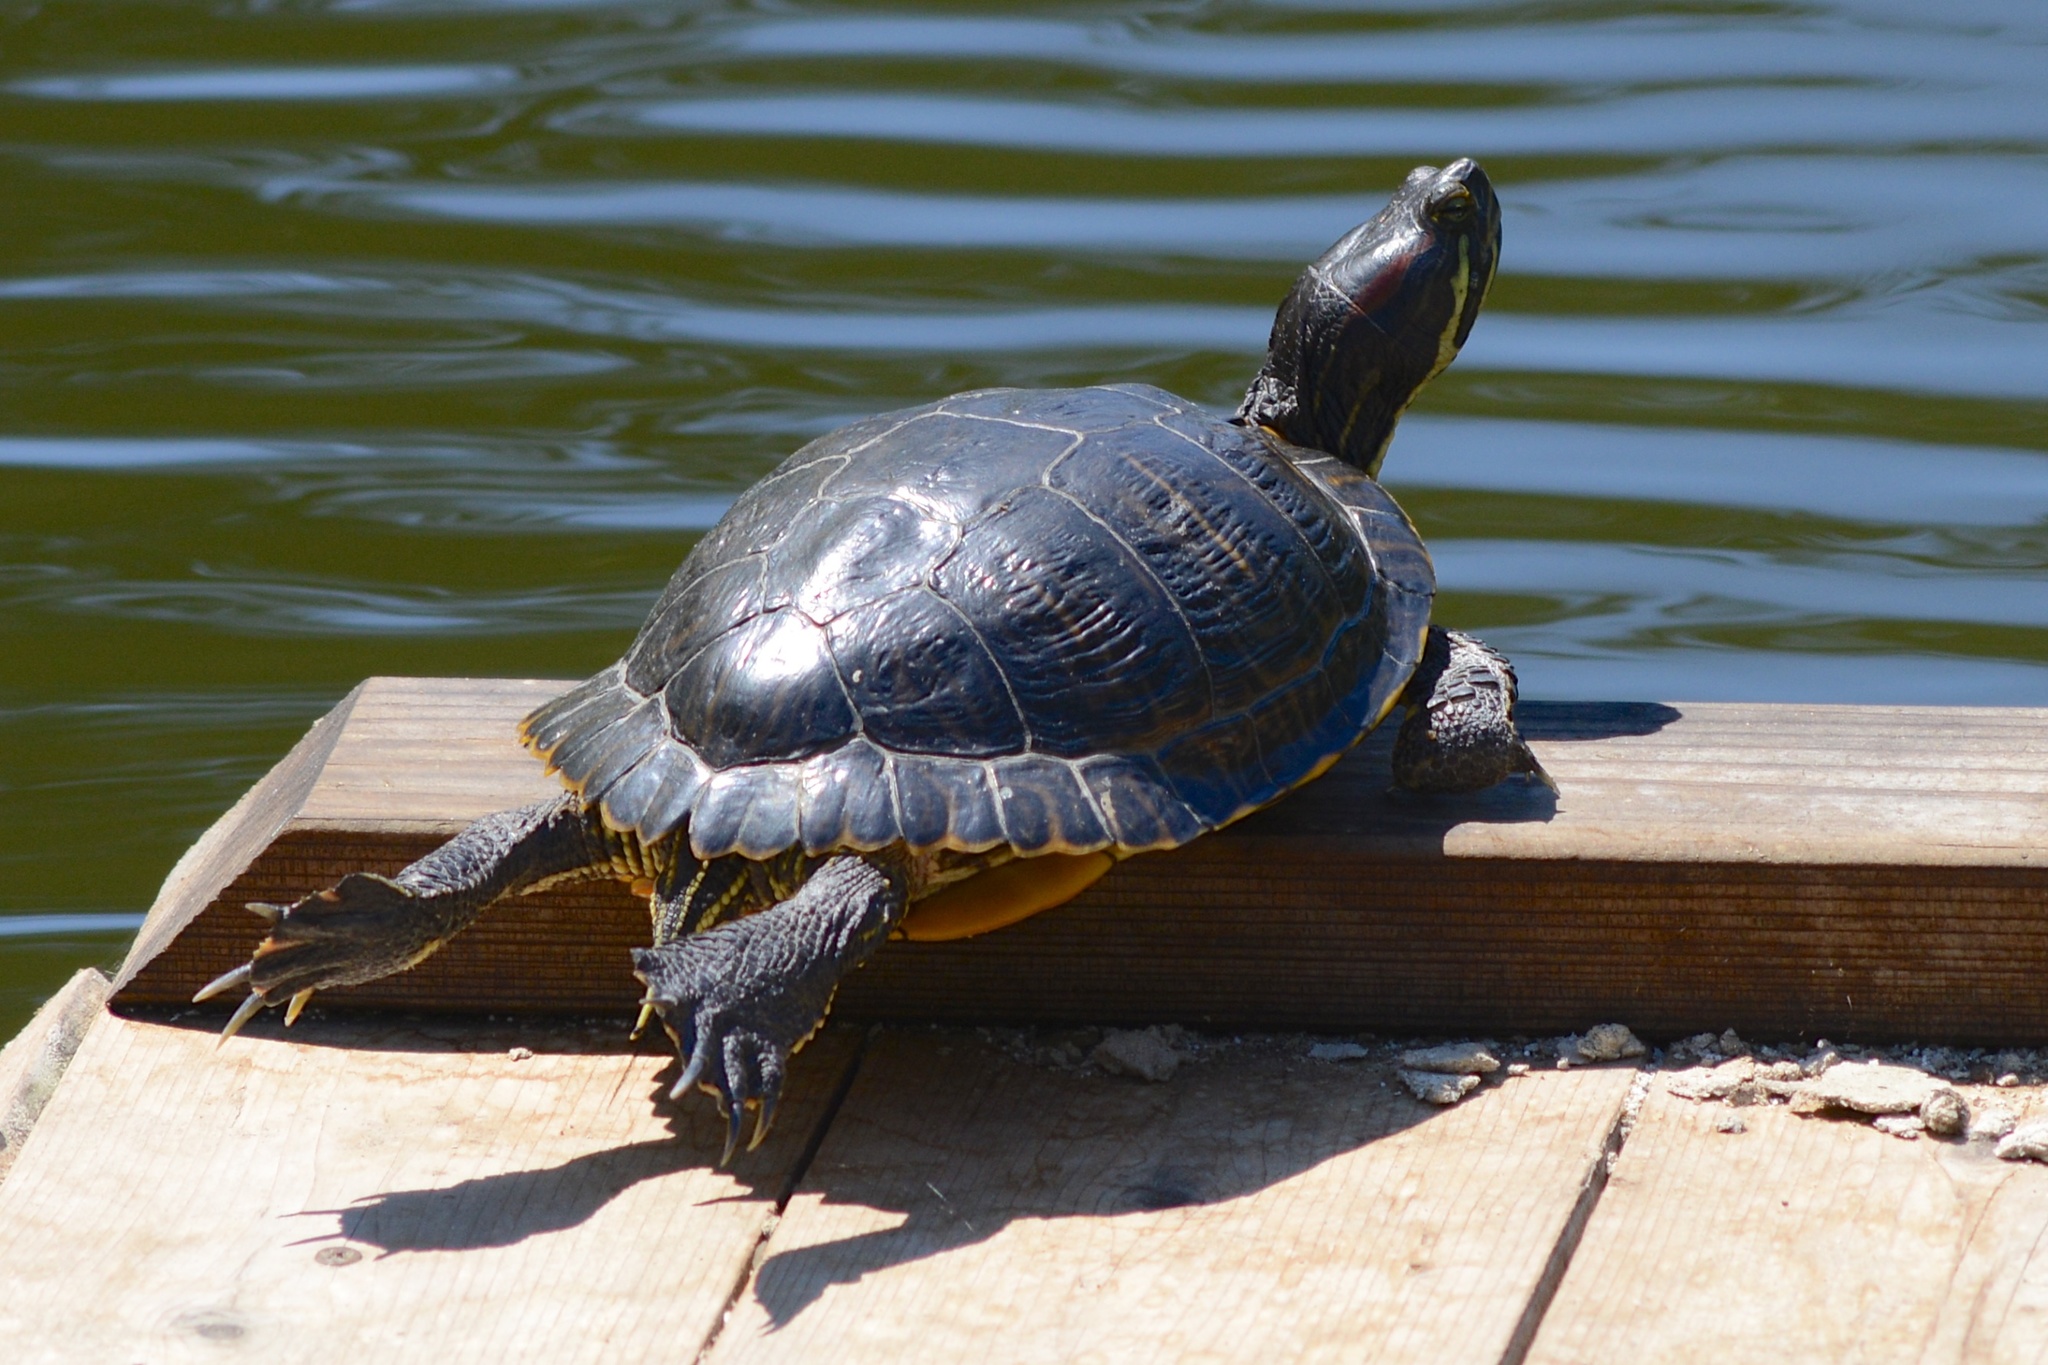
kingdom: Animalia
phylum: Chordata
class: Testudines
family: Emydidae
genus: Trachemys
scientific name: Trachemys scripta
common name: Slider
